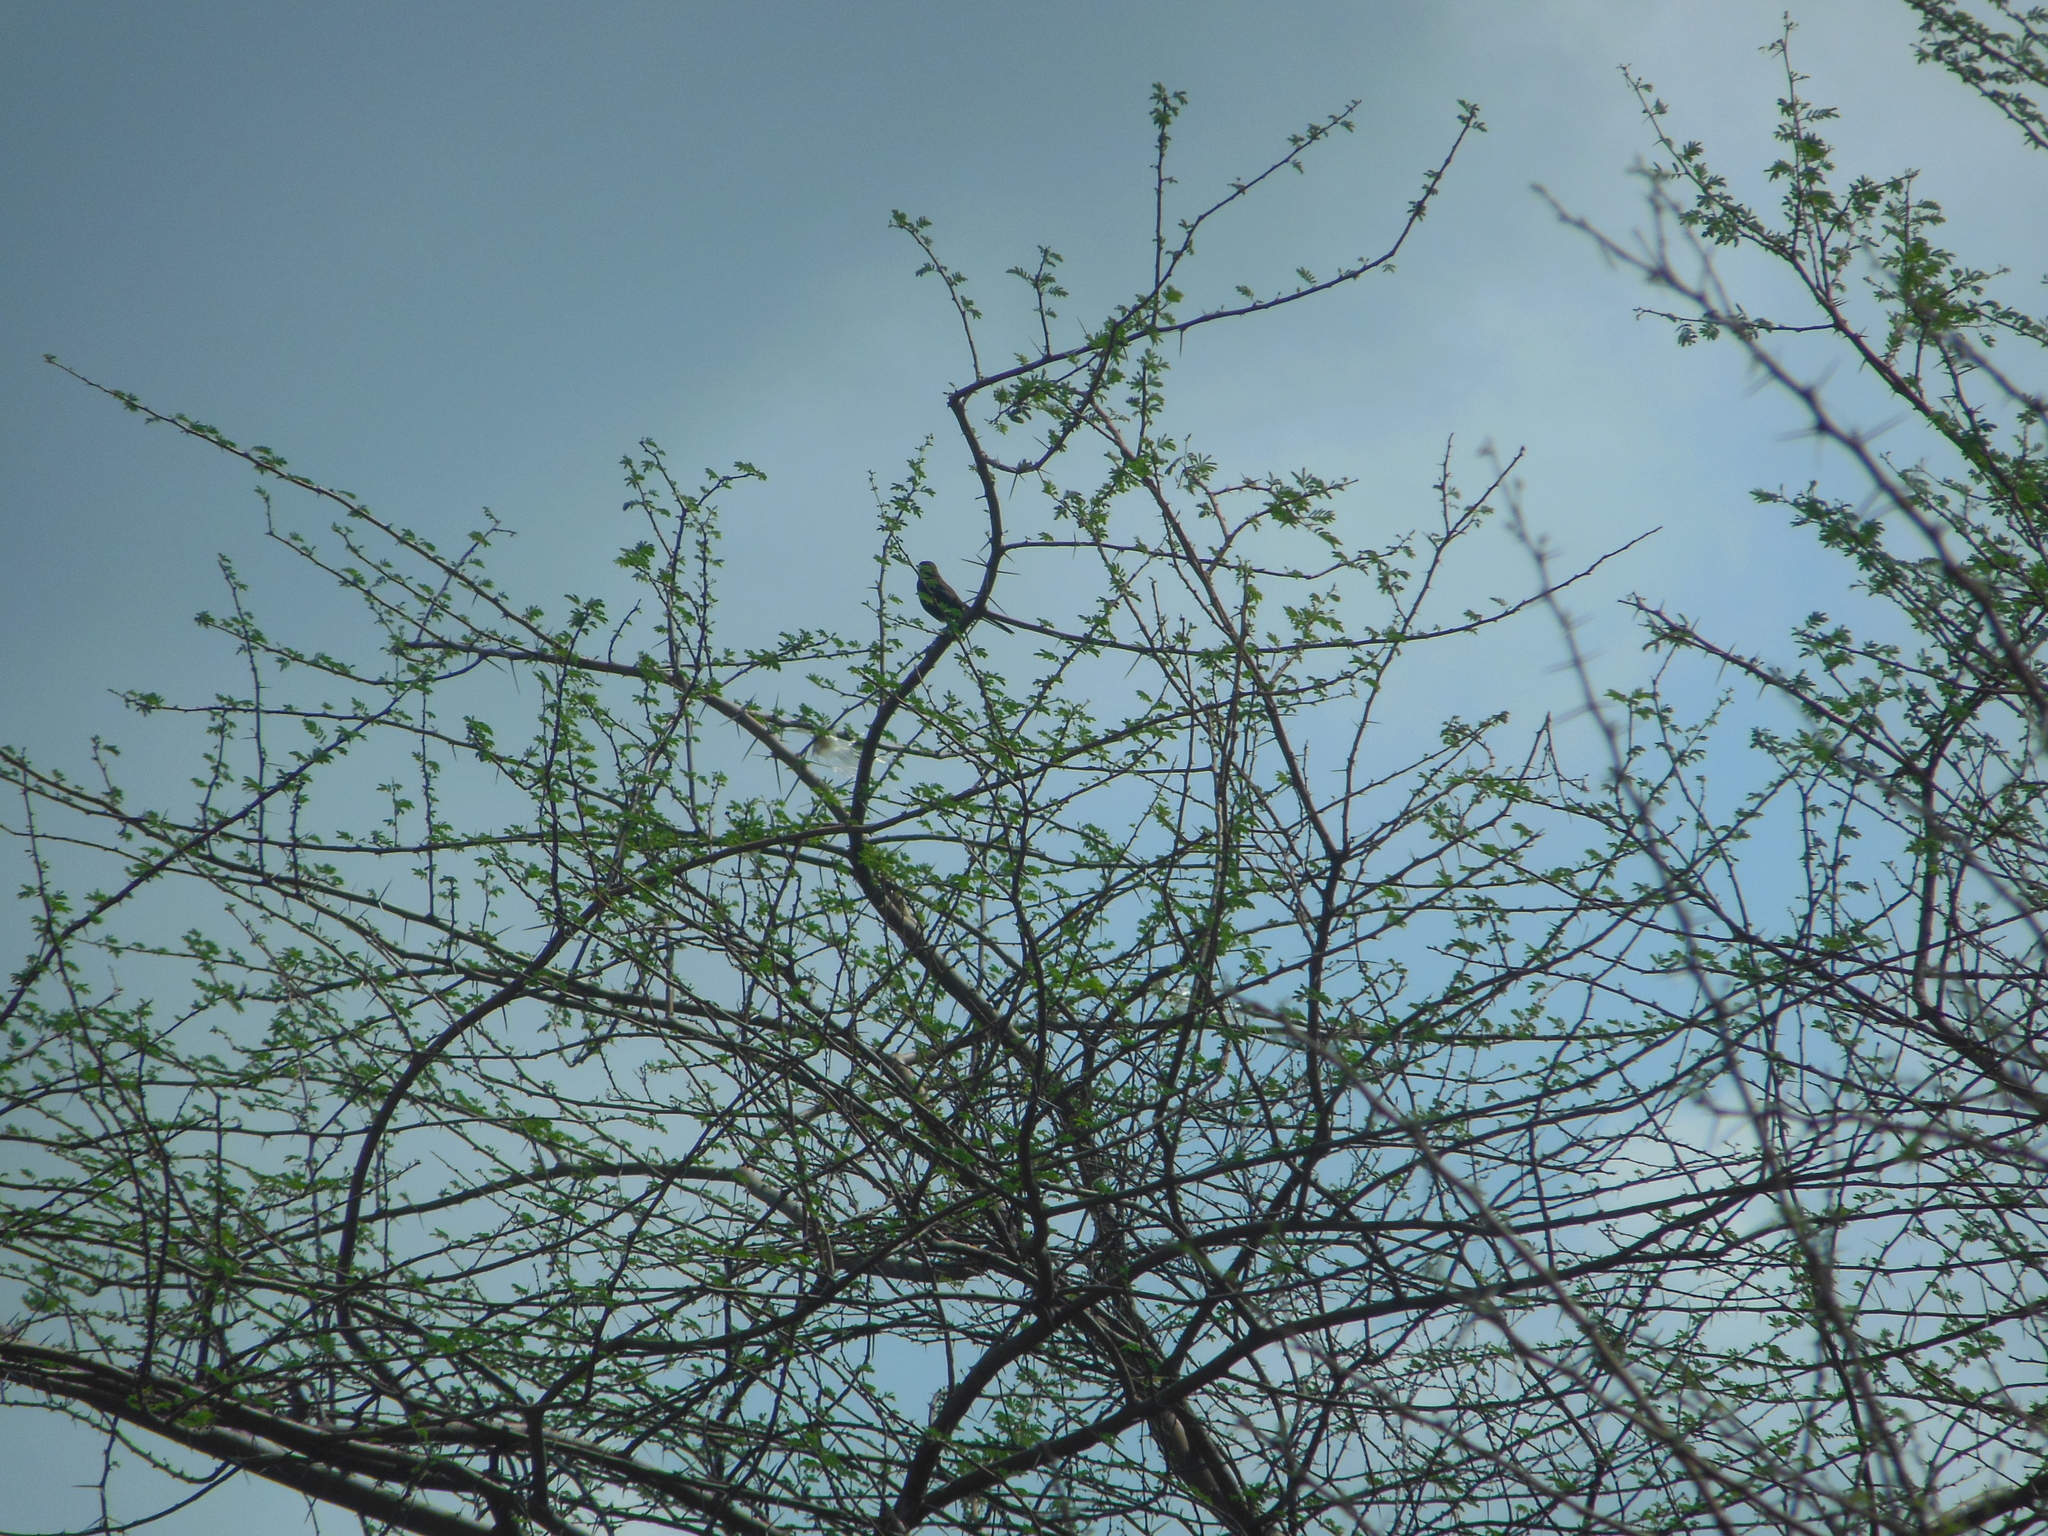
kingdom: Animalia
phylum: Chordata
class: Aves
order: Passeriformes
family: Muscicapidae
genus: Saxicoloides
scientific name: Saxicoloides fulicatus
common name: Indian robin
